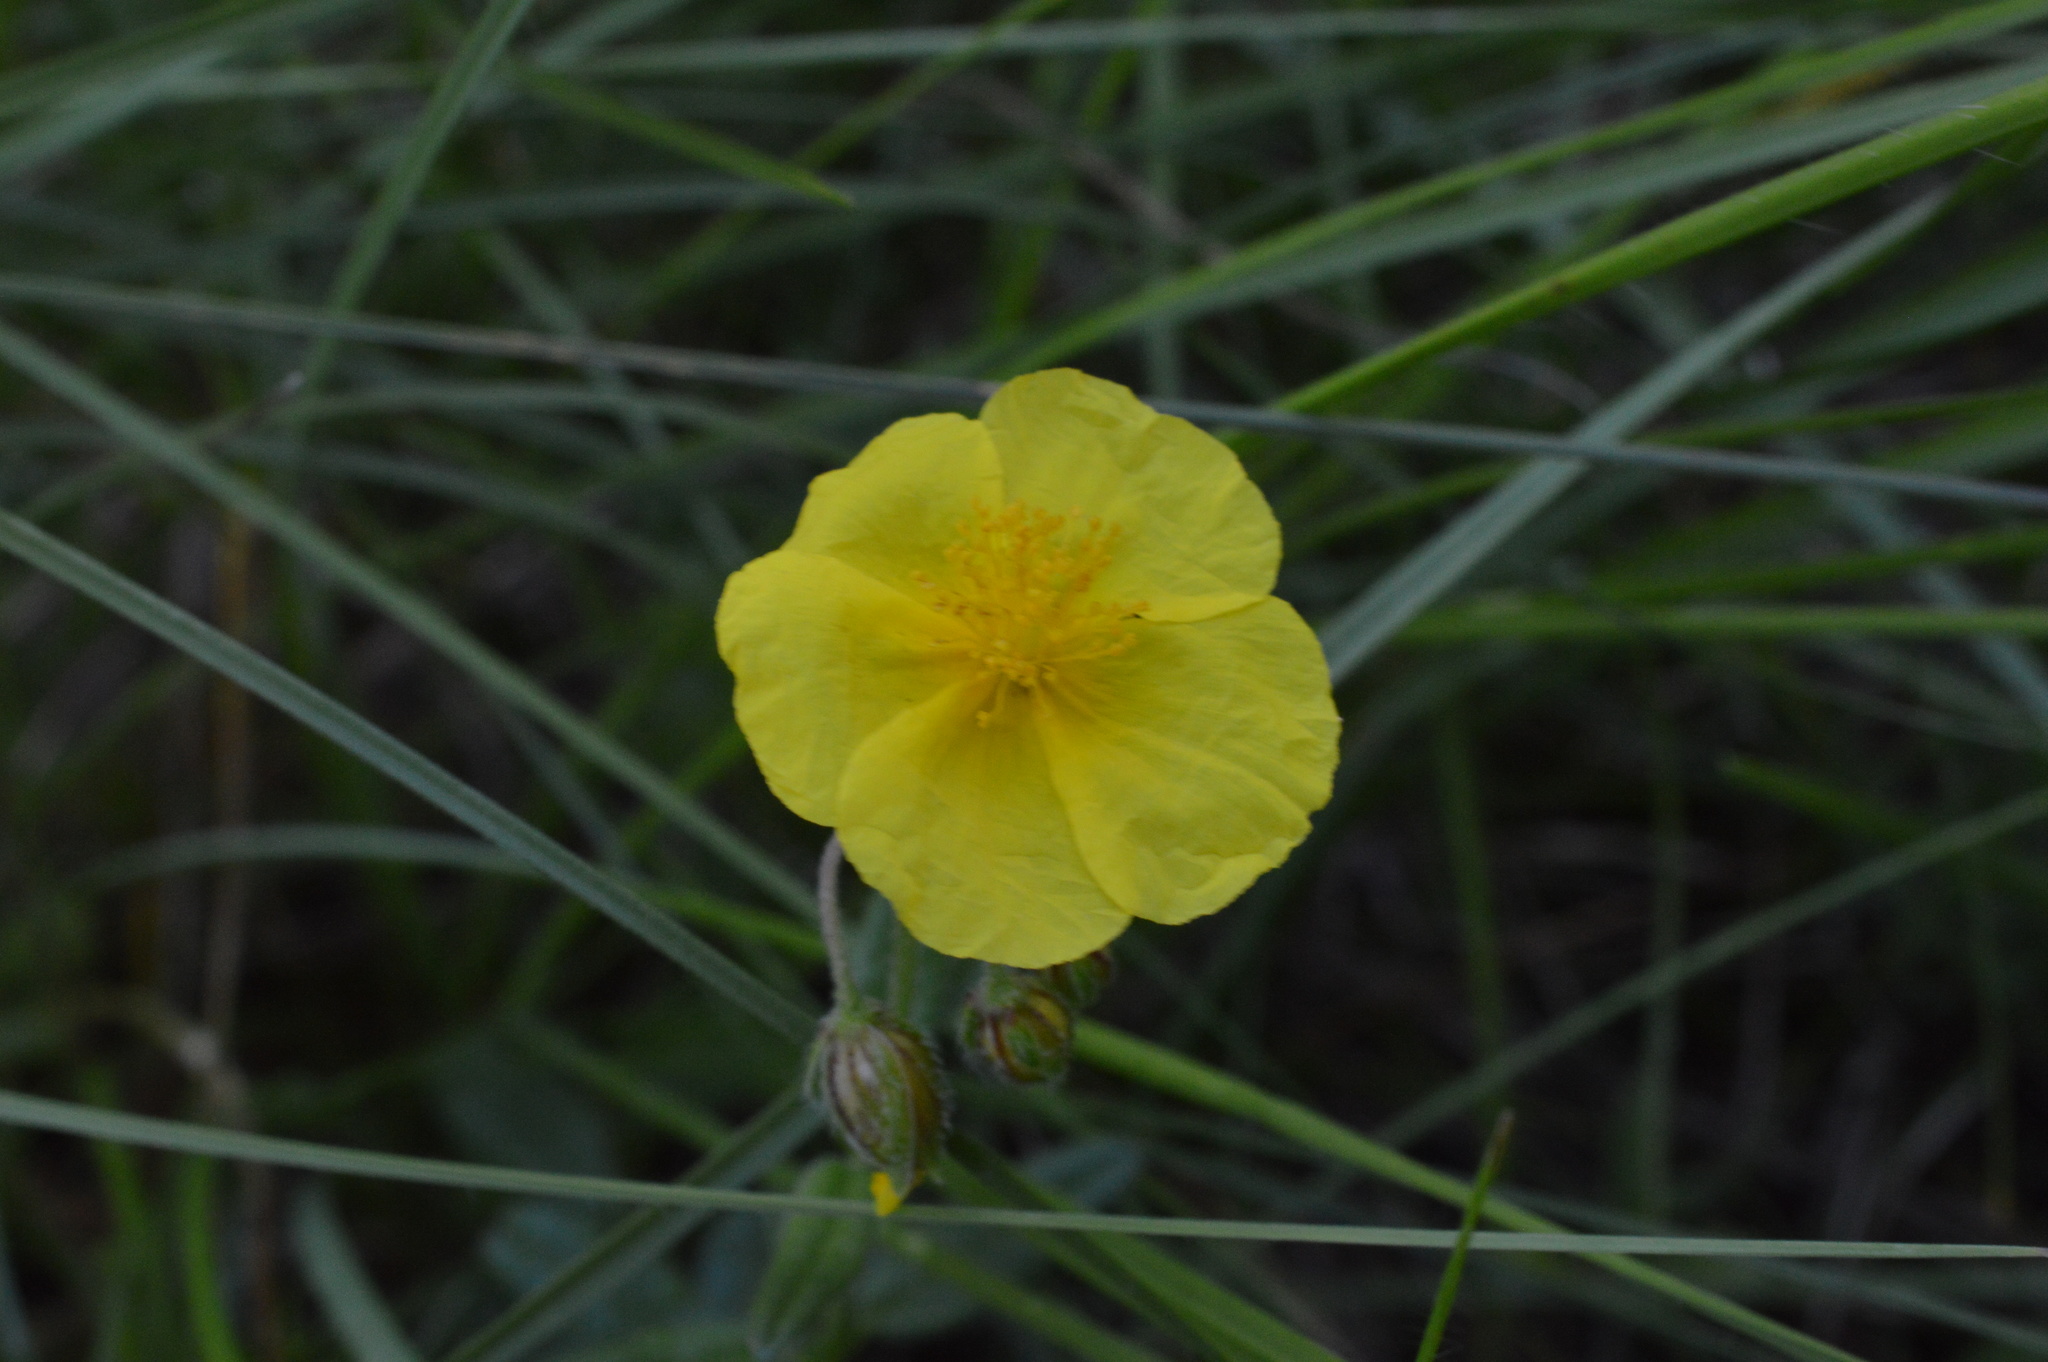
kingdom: Plantae
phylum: Tracheophyta
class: Magnoliopsida
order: Malvales
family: Cistaceae
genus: Helianthemum
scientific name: Helianthemum nummularium
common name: Common rock-rose
